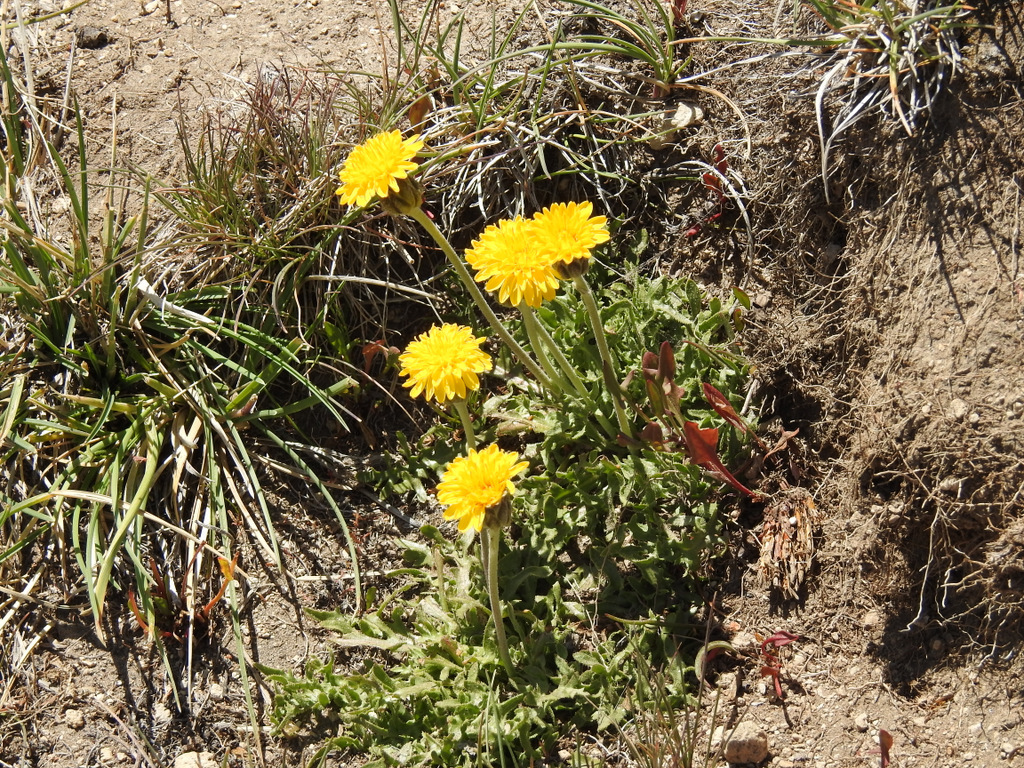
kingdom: Plantae
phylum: Tracheophyta
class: Magnoliopsida
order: Asterales
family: Asteraceae
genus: Hypochaeris
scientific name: Hypochaeris tenuifolia
